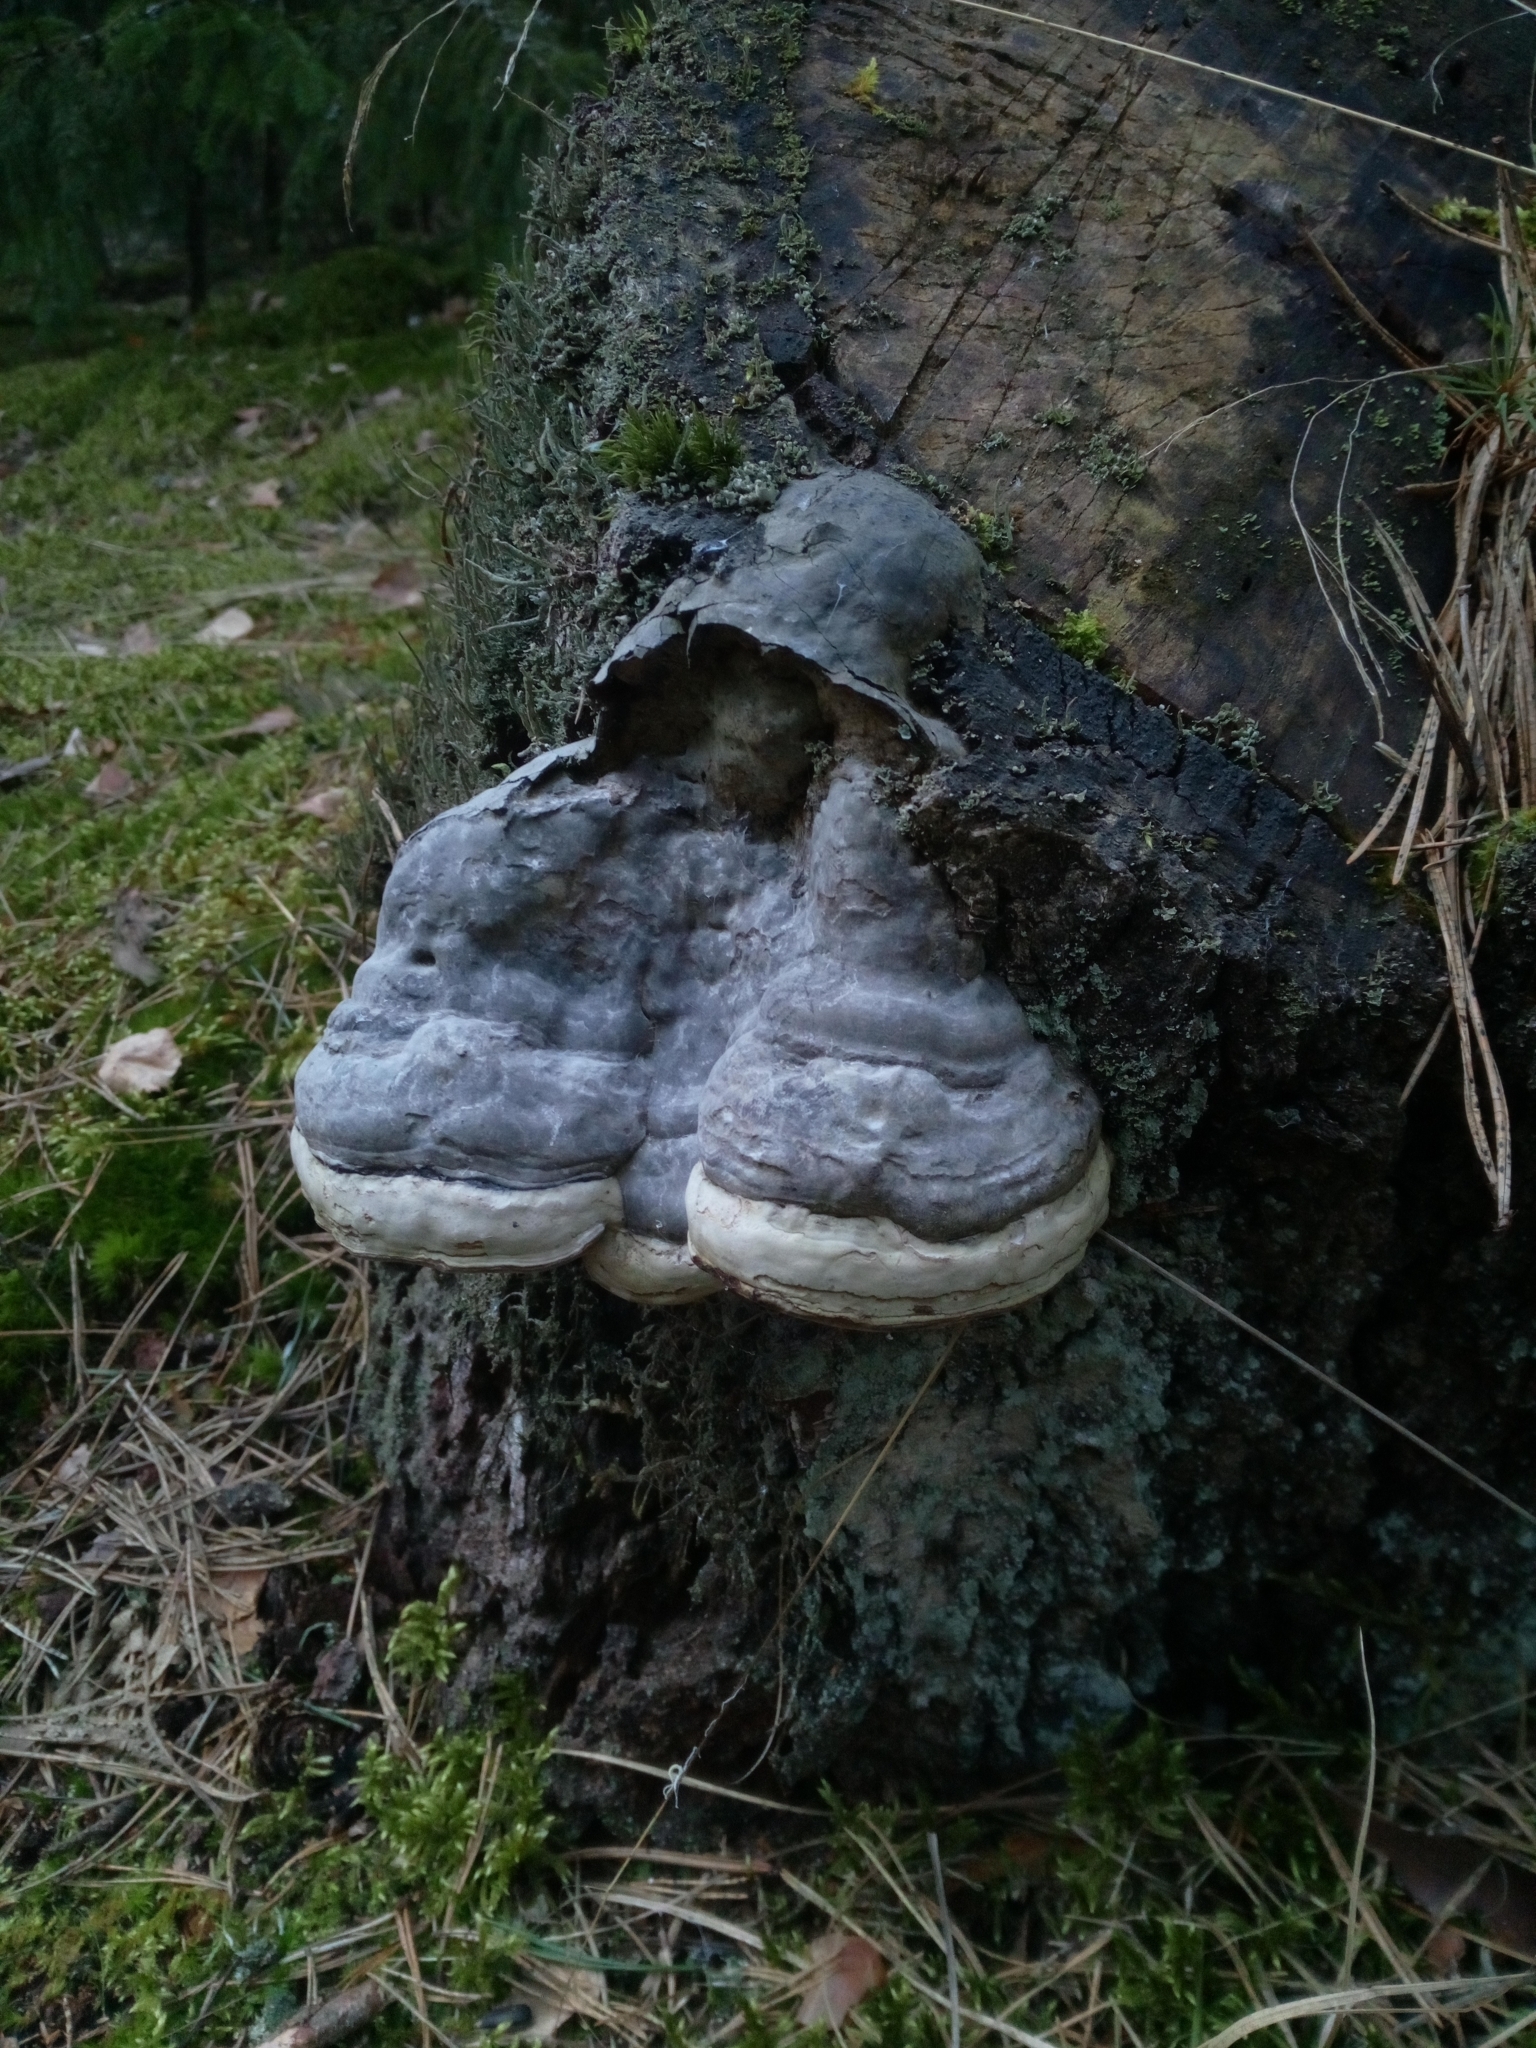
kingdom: Fungi
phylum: Basidiomycota
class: Agaricomycetes
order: Polyporales
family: Polyporaceae
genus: Fomes
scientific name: Fomes fomentarius
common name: Hoof fungus
